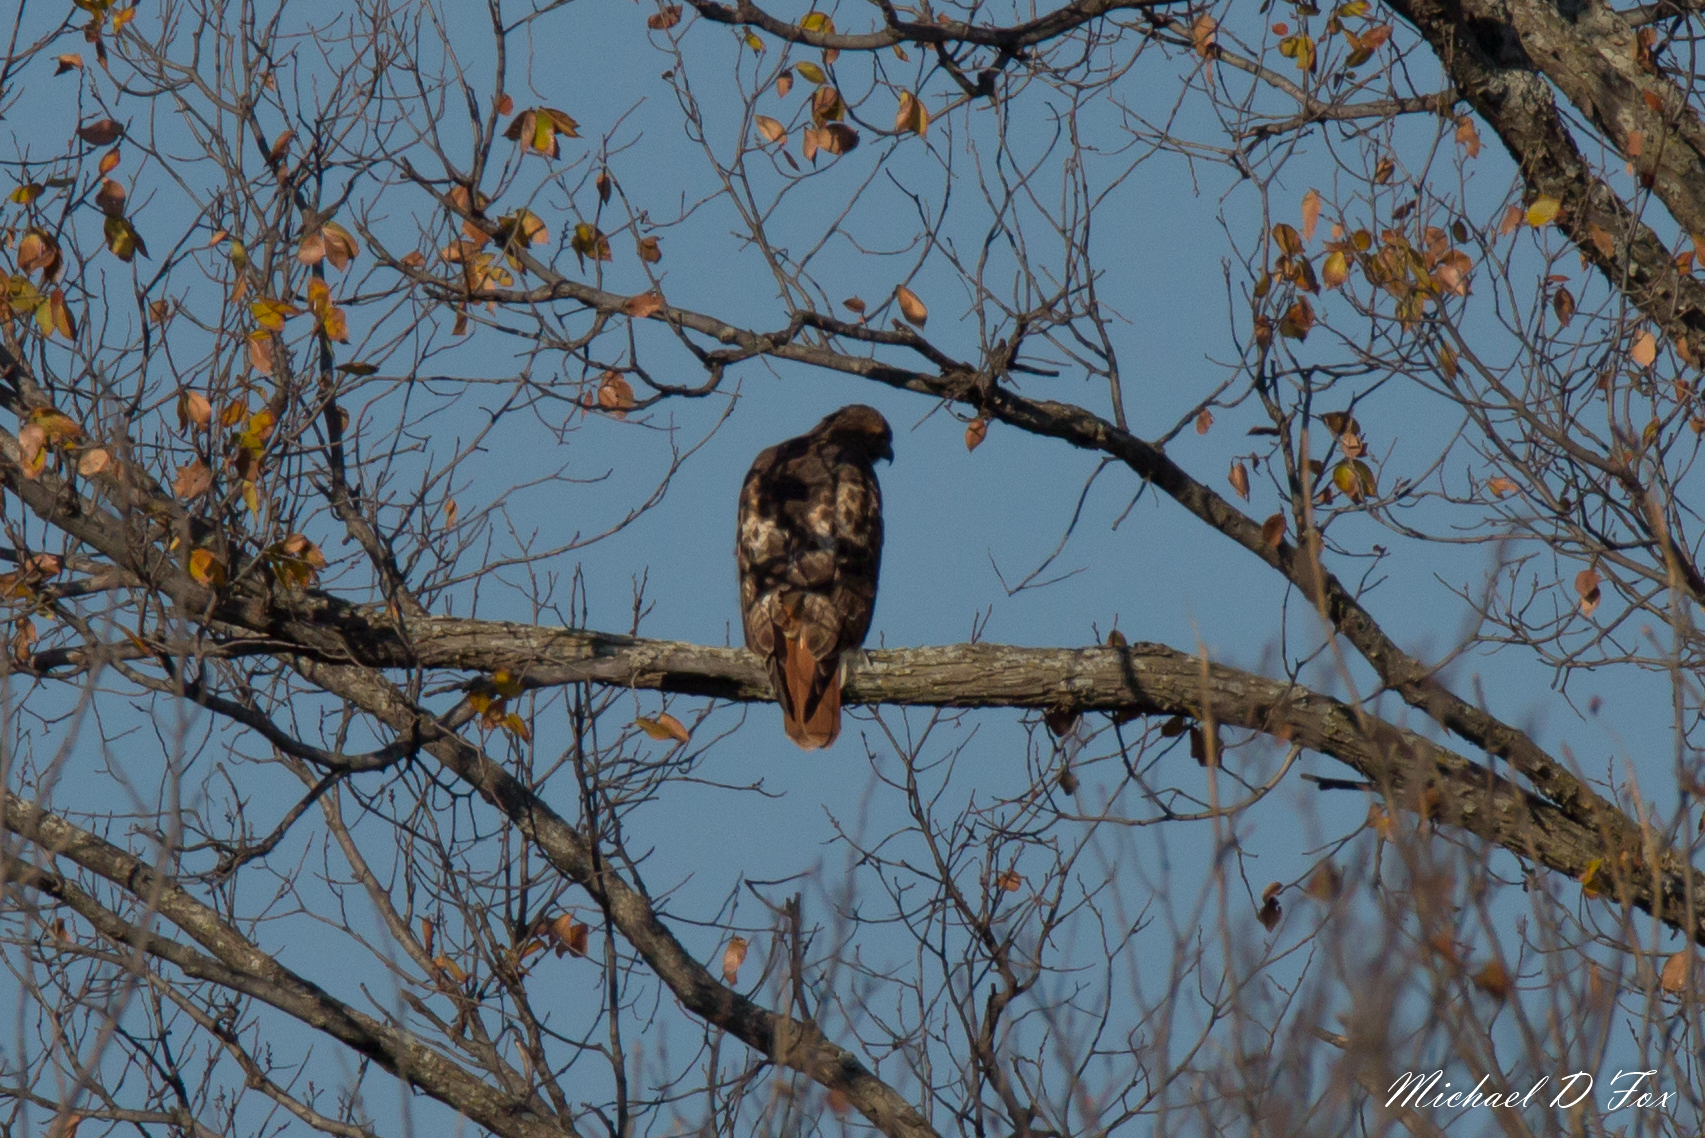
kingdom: Animalia
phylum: Chordata
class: Aves
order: Accipitriformes
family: Accipitridae
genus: Buteo
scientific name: Buteo jamaicensis
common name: Red-tailed hawk
